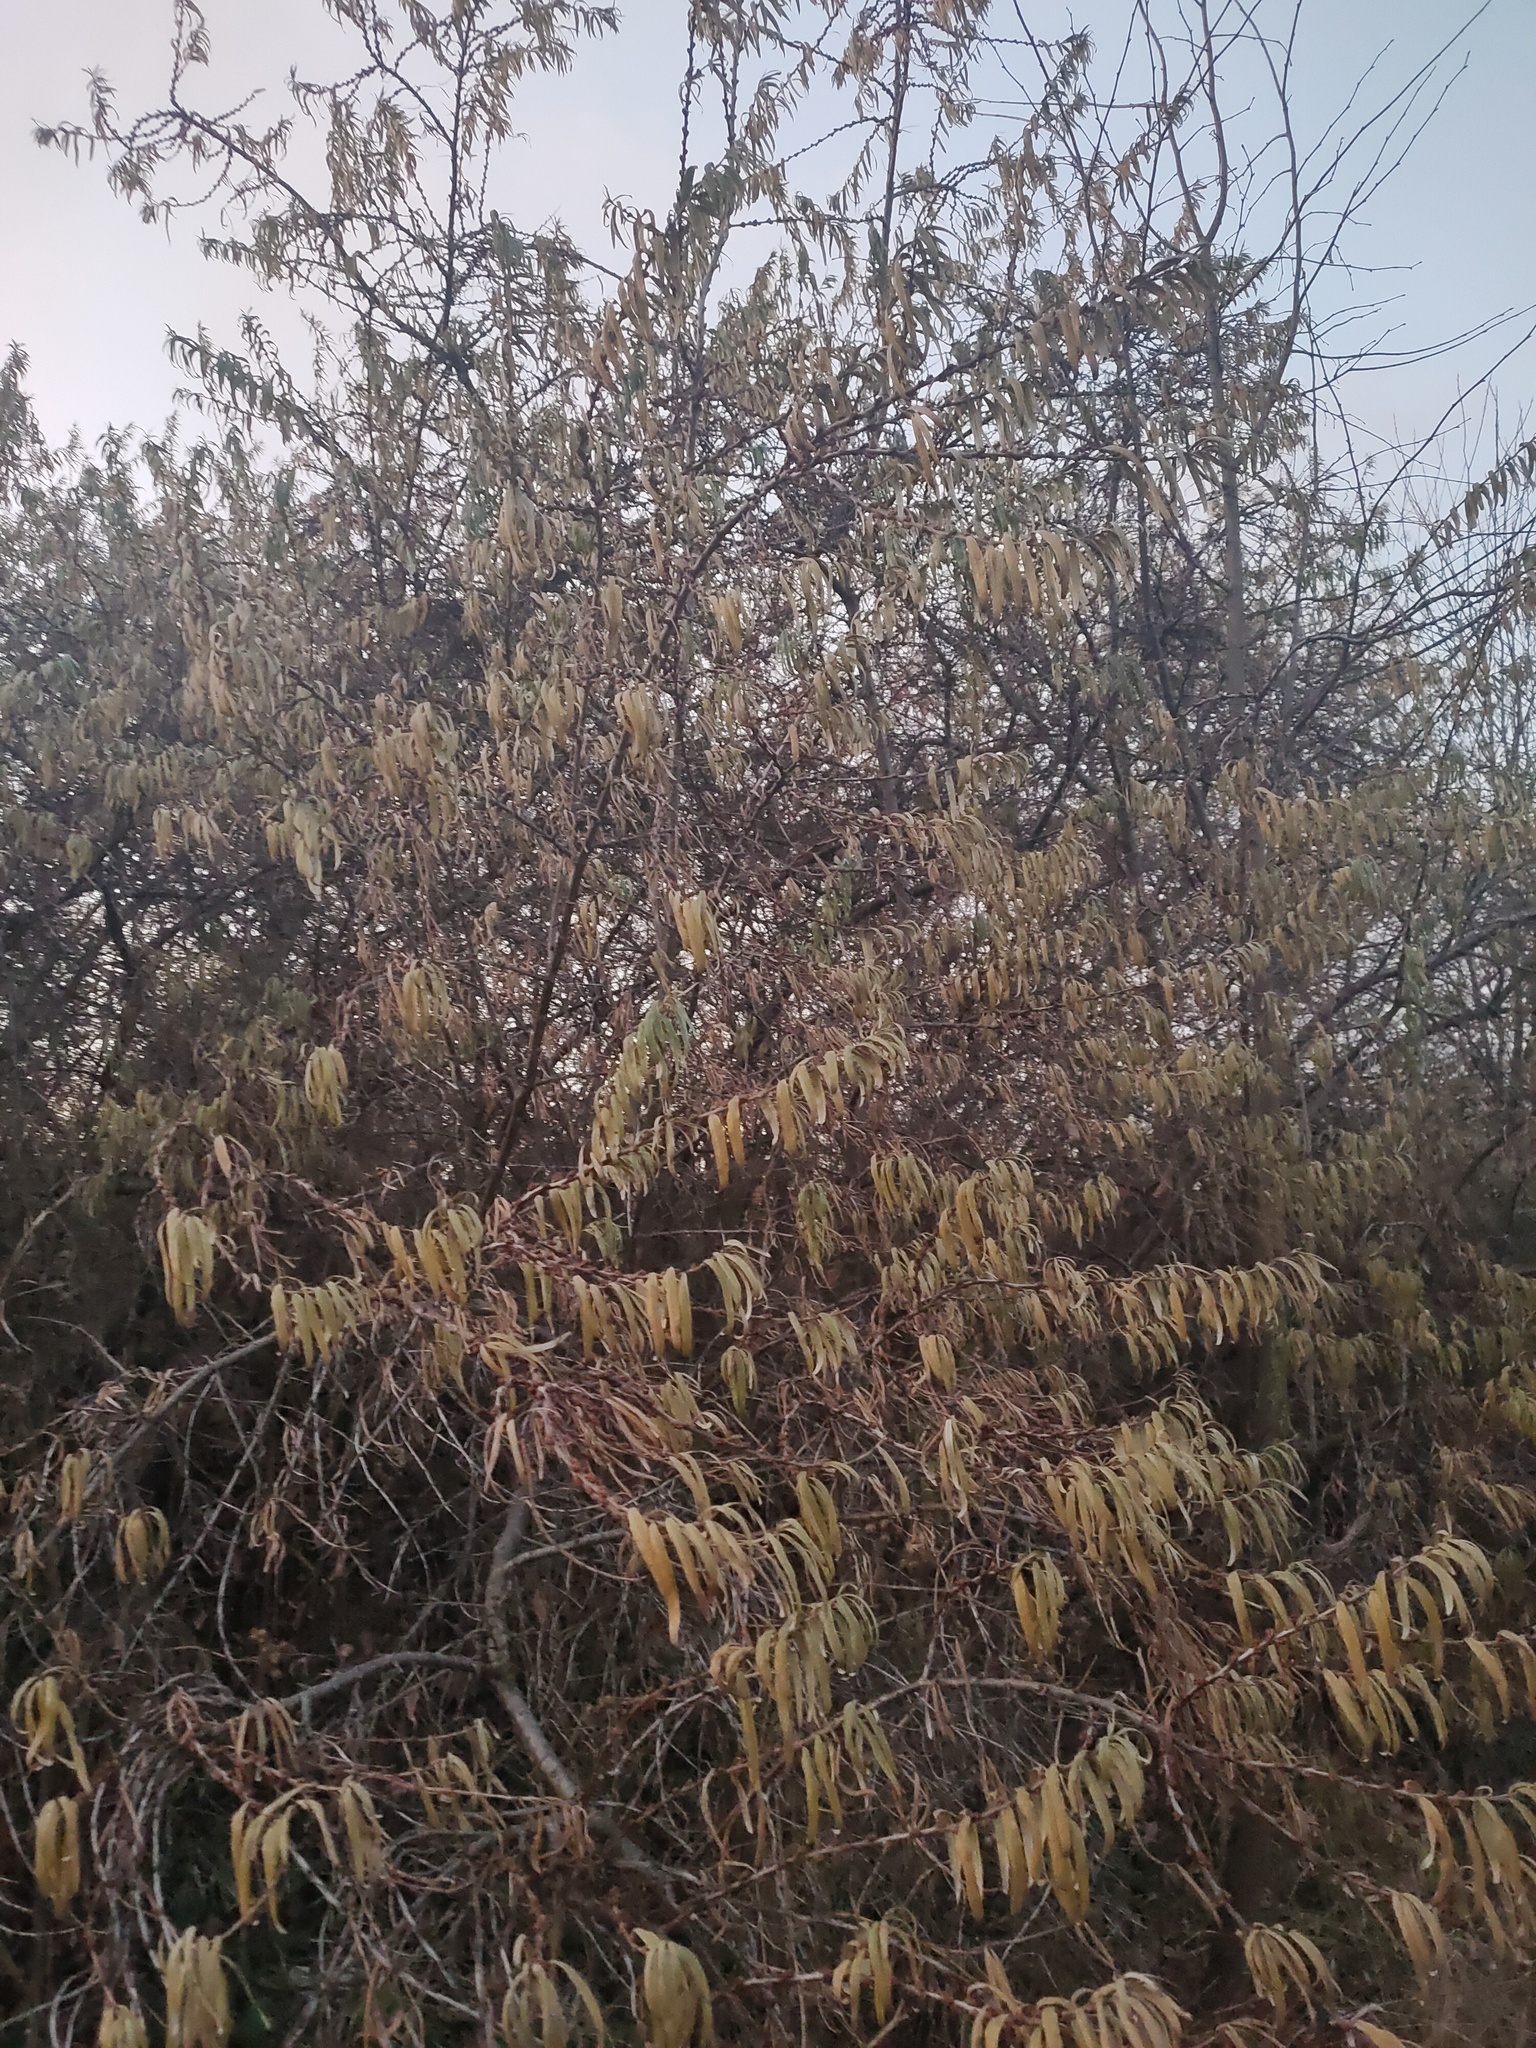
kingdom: Plantae
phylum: Tracheophyta
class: Magnoliopsida
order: Rosales
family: Elaeagnaceae
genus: Hippophae
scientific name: Hippophae rhamnoides
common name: Sea-buckthorn
